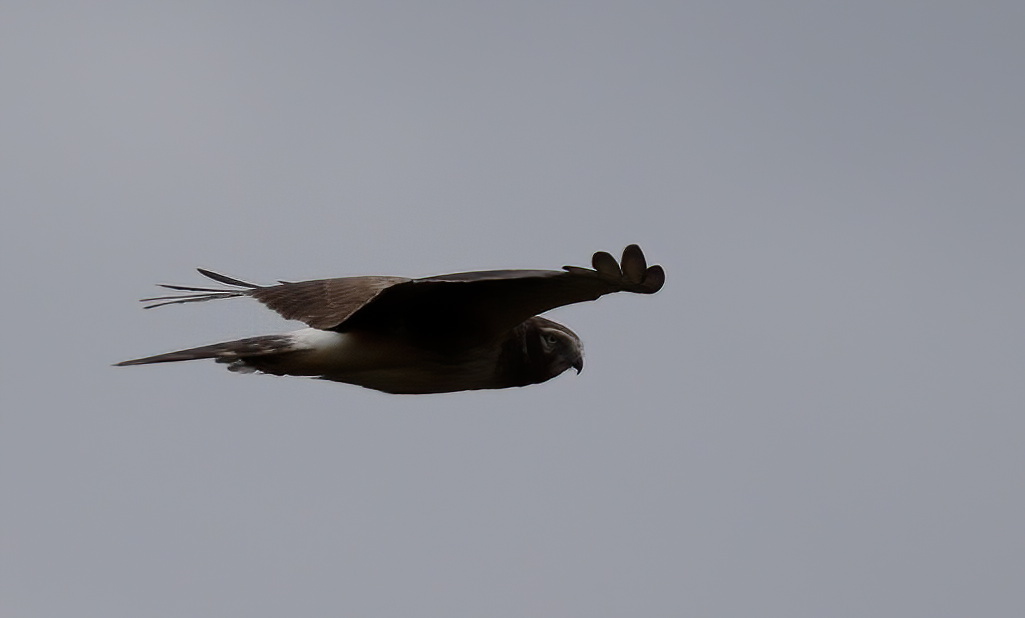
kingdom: Animalia
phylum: Chordata
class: Aves
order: Accipitriformes
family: Accipitridae
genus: Circus
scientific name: Circus cyaneus
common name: Hen harrier
